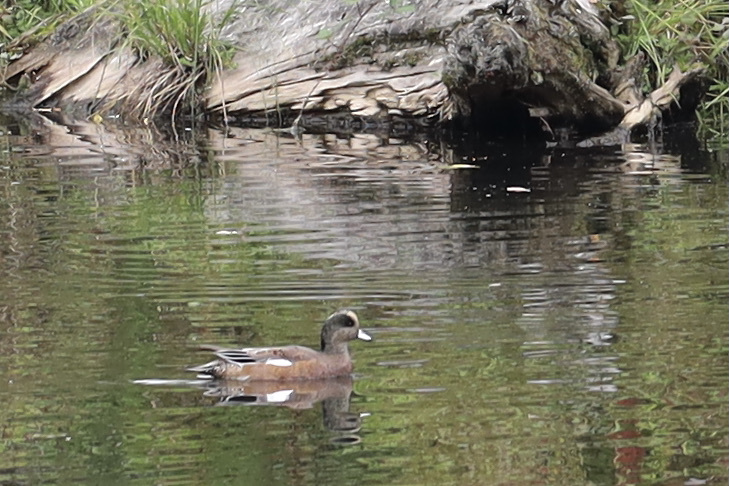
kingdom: Animalia
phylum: Chordata
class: Aves
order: Anseriformes
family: Anatidae
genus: Mareca
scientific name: Mareca americana
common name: American wigeon
